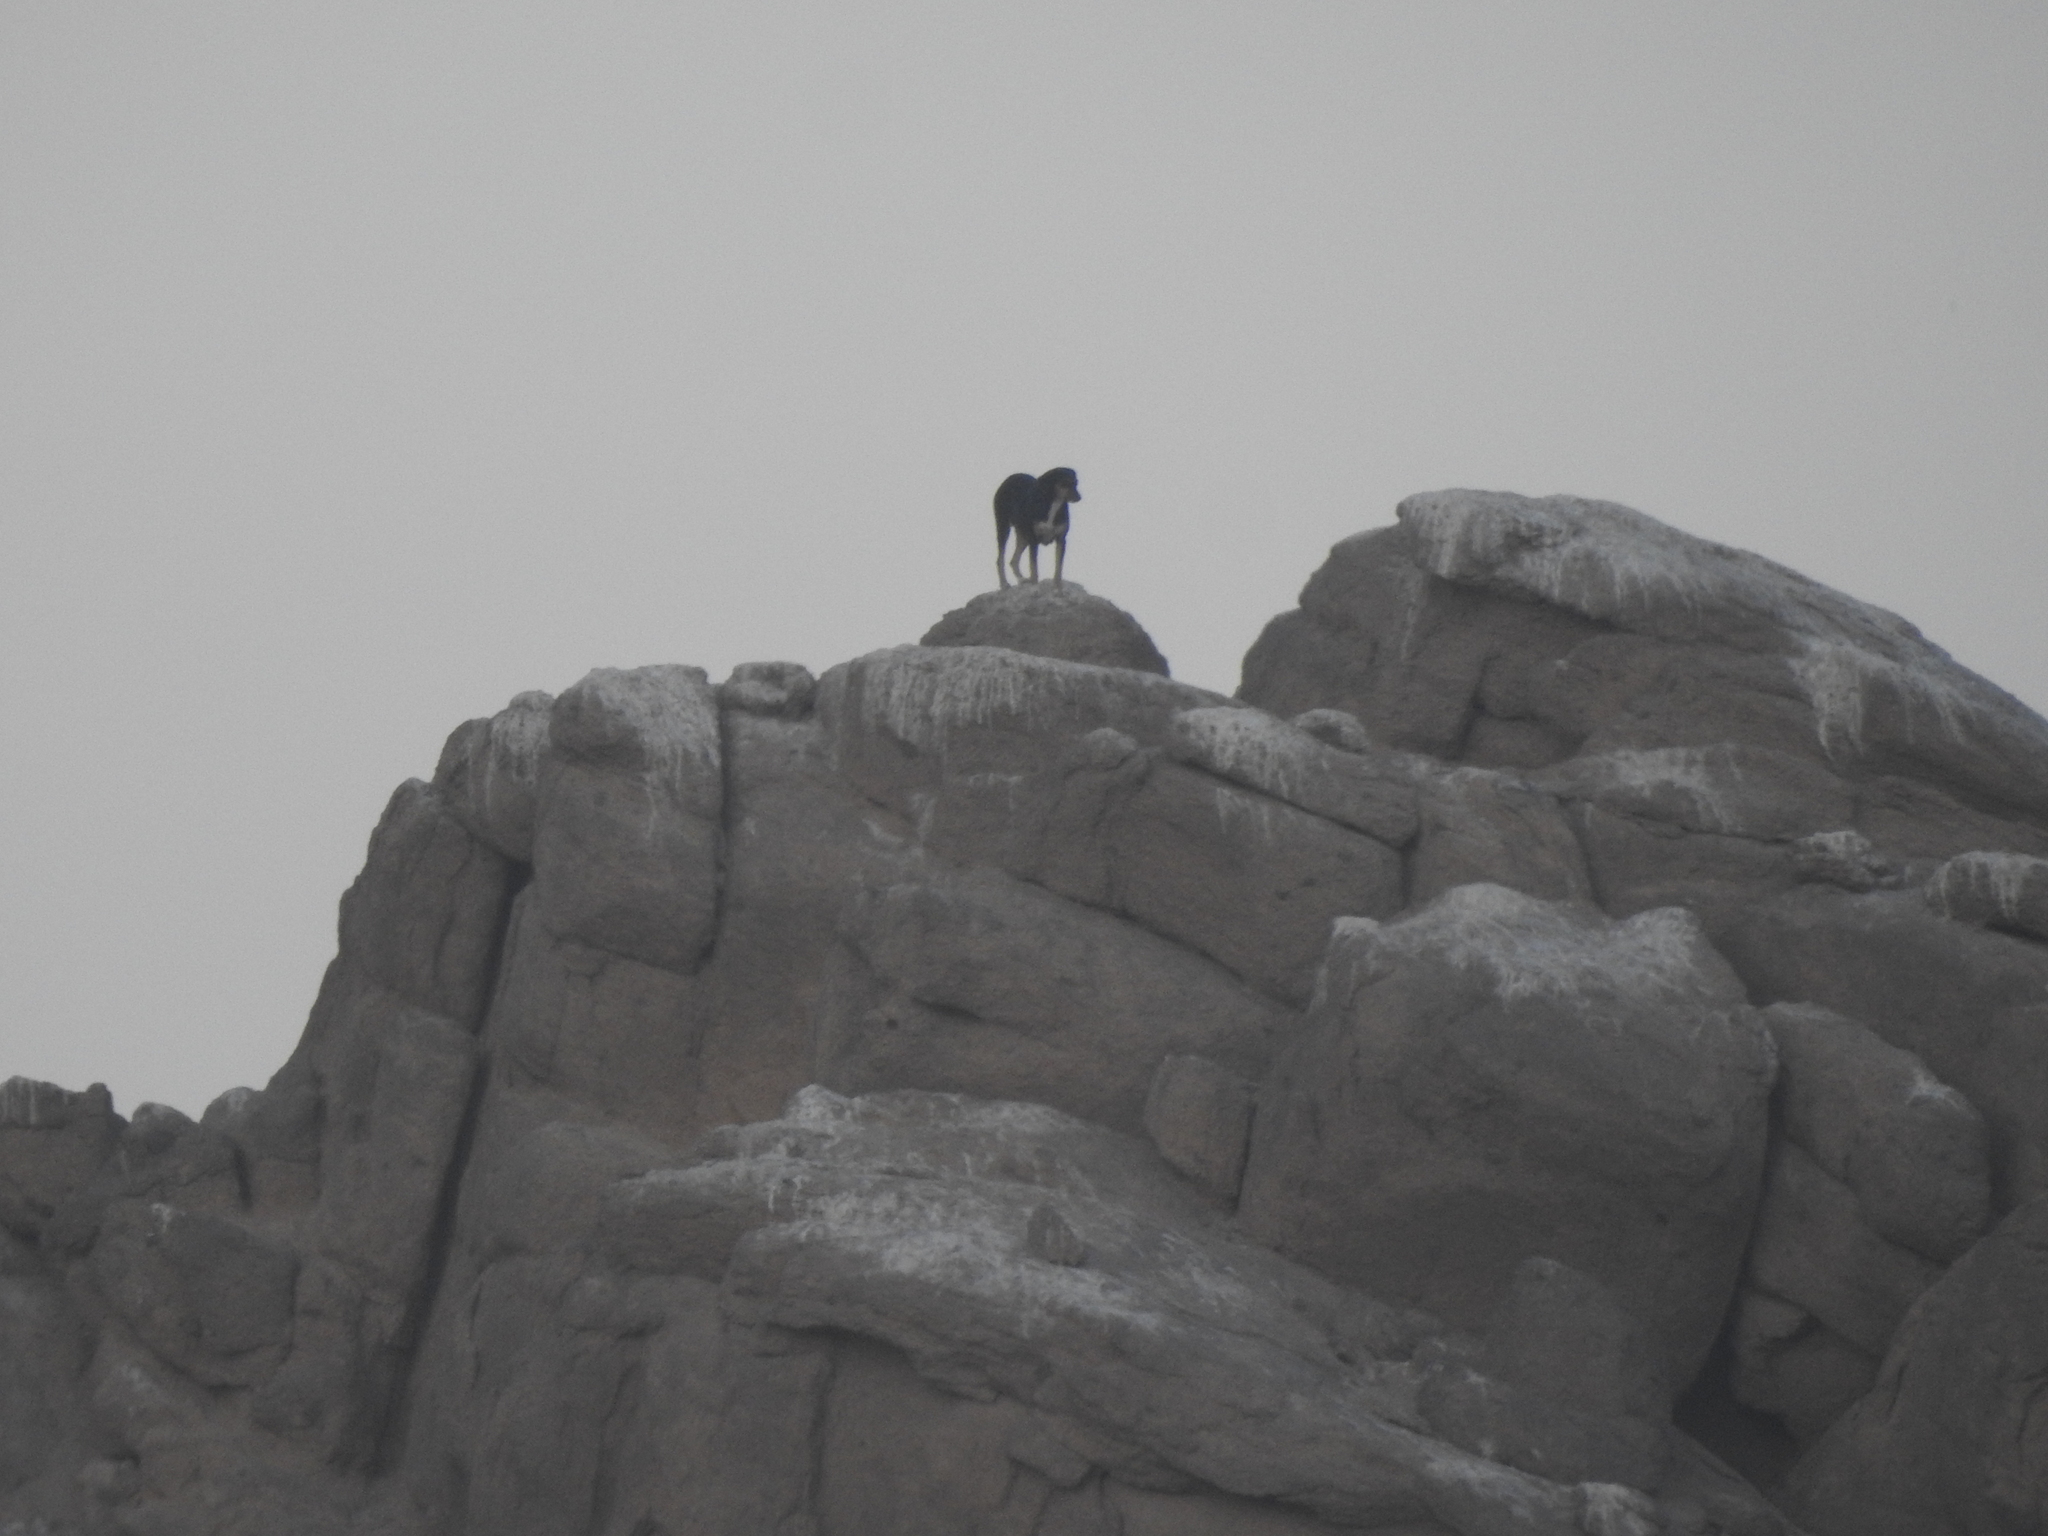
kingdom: Animalia
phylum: Chordata
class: Mammalia
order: Carnivora
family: Canidae
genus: Canis
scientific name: Canis lupus
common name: Gray wolf
